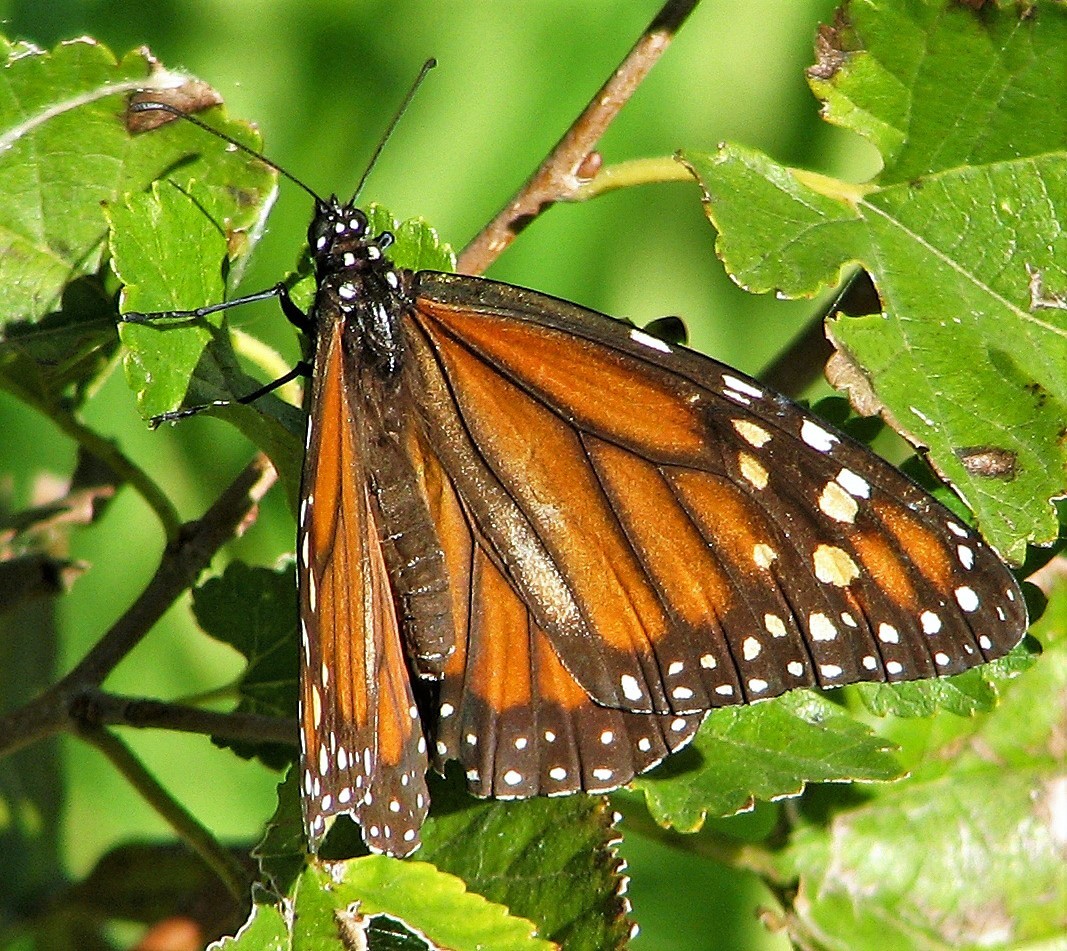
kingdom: Animalia
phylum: Arthropoda
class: Insecta
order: Lepidoptera
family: Nymphalidae
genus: Danaus
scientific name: Danaus erippus
